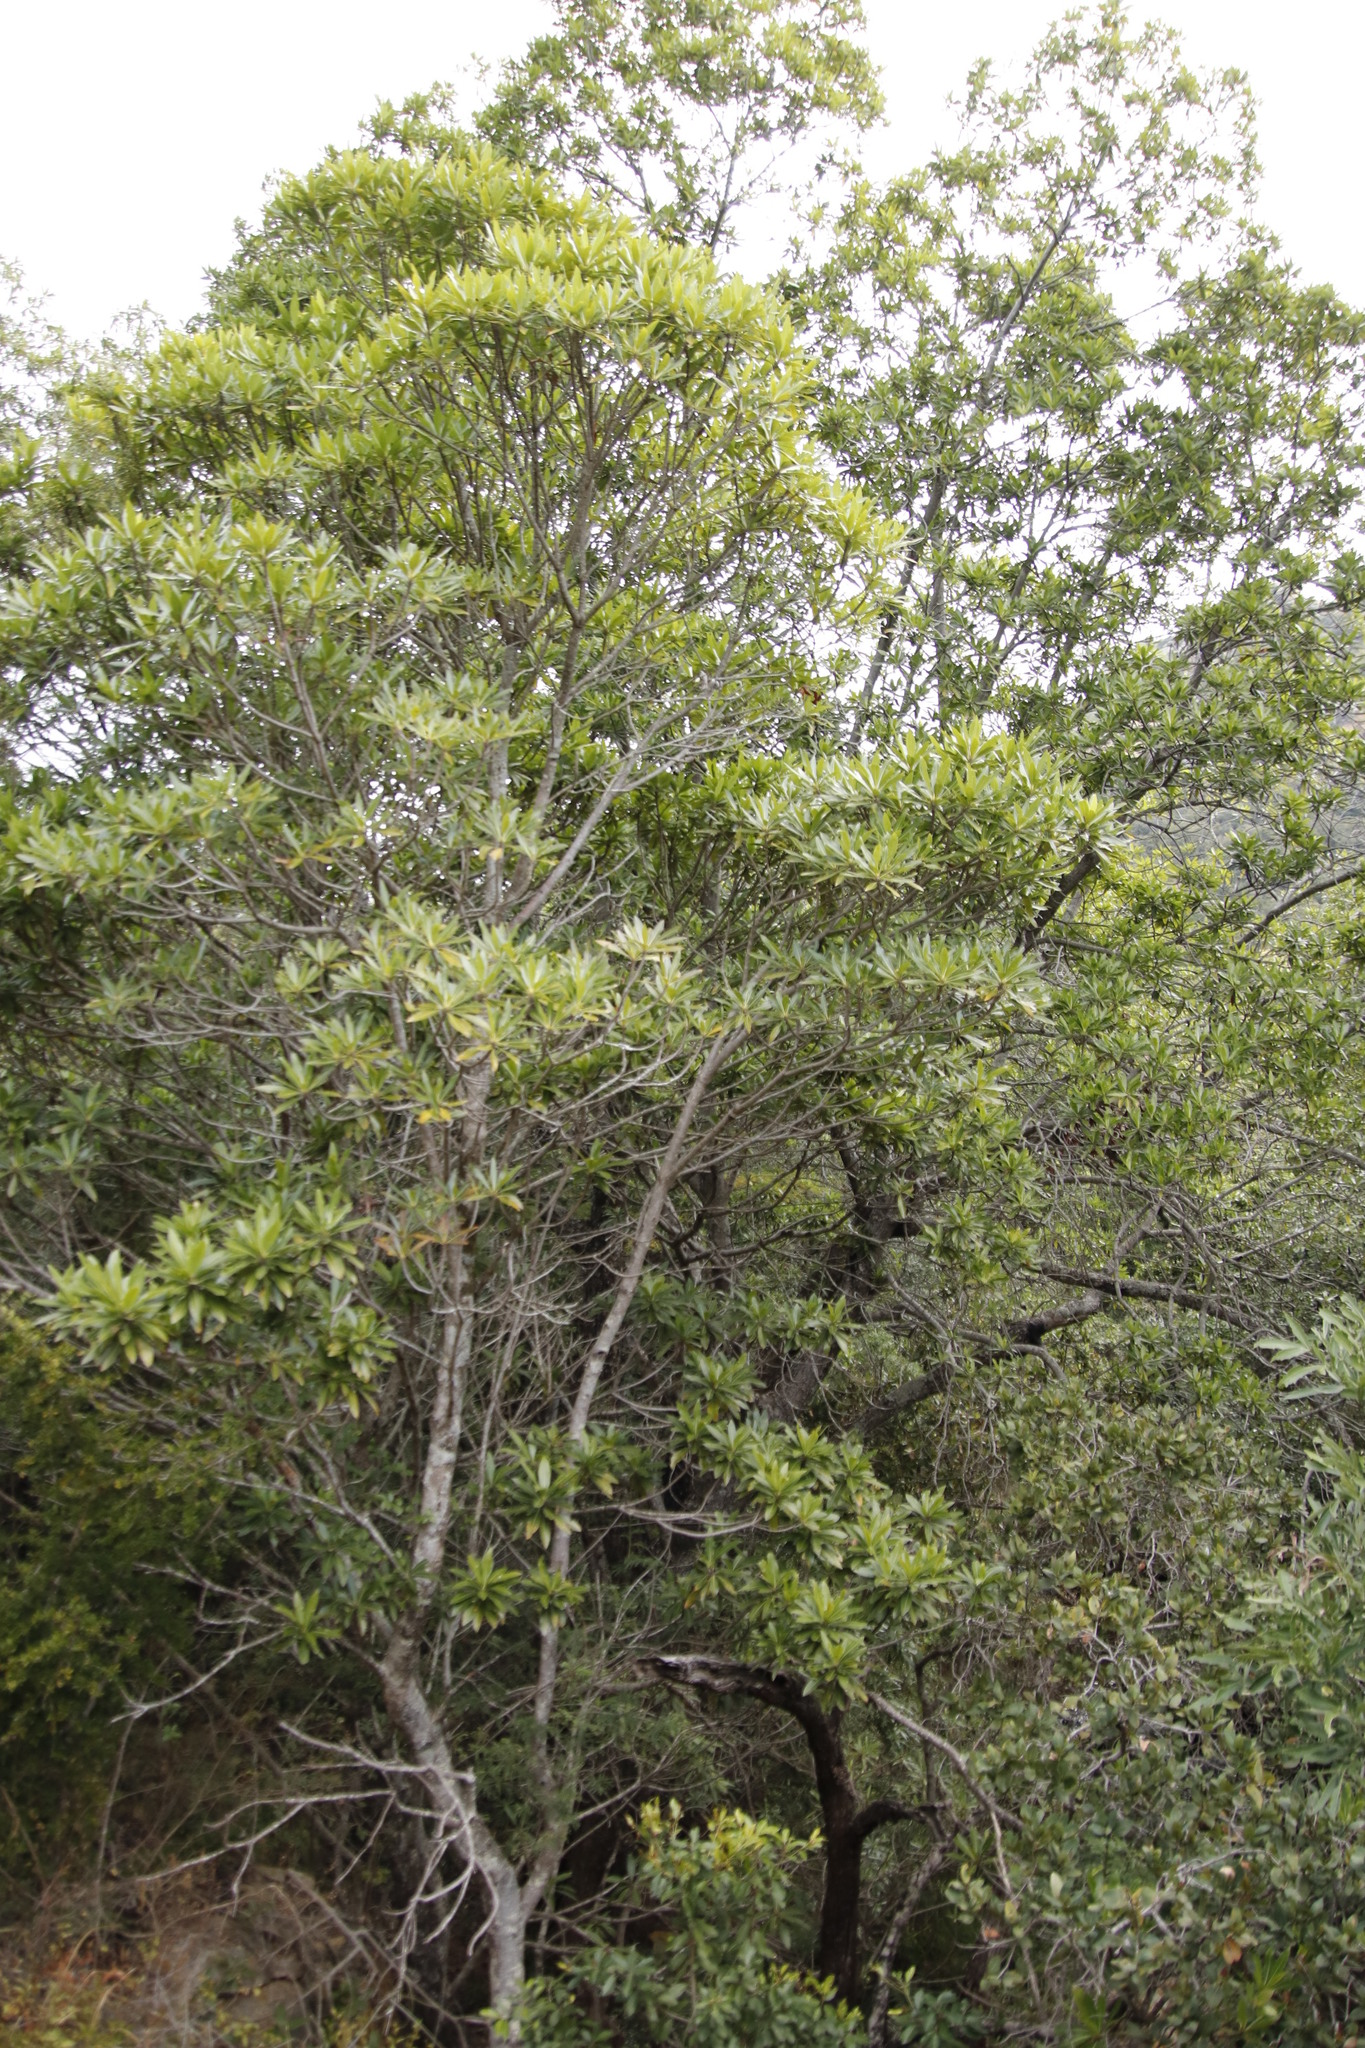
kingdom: Plantae
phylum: Tracheophyta
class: Magnoliopsida
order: Gentianales
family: Rubiaceae
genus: Breonadia
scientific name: Breonadia salicina
